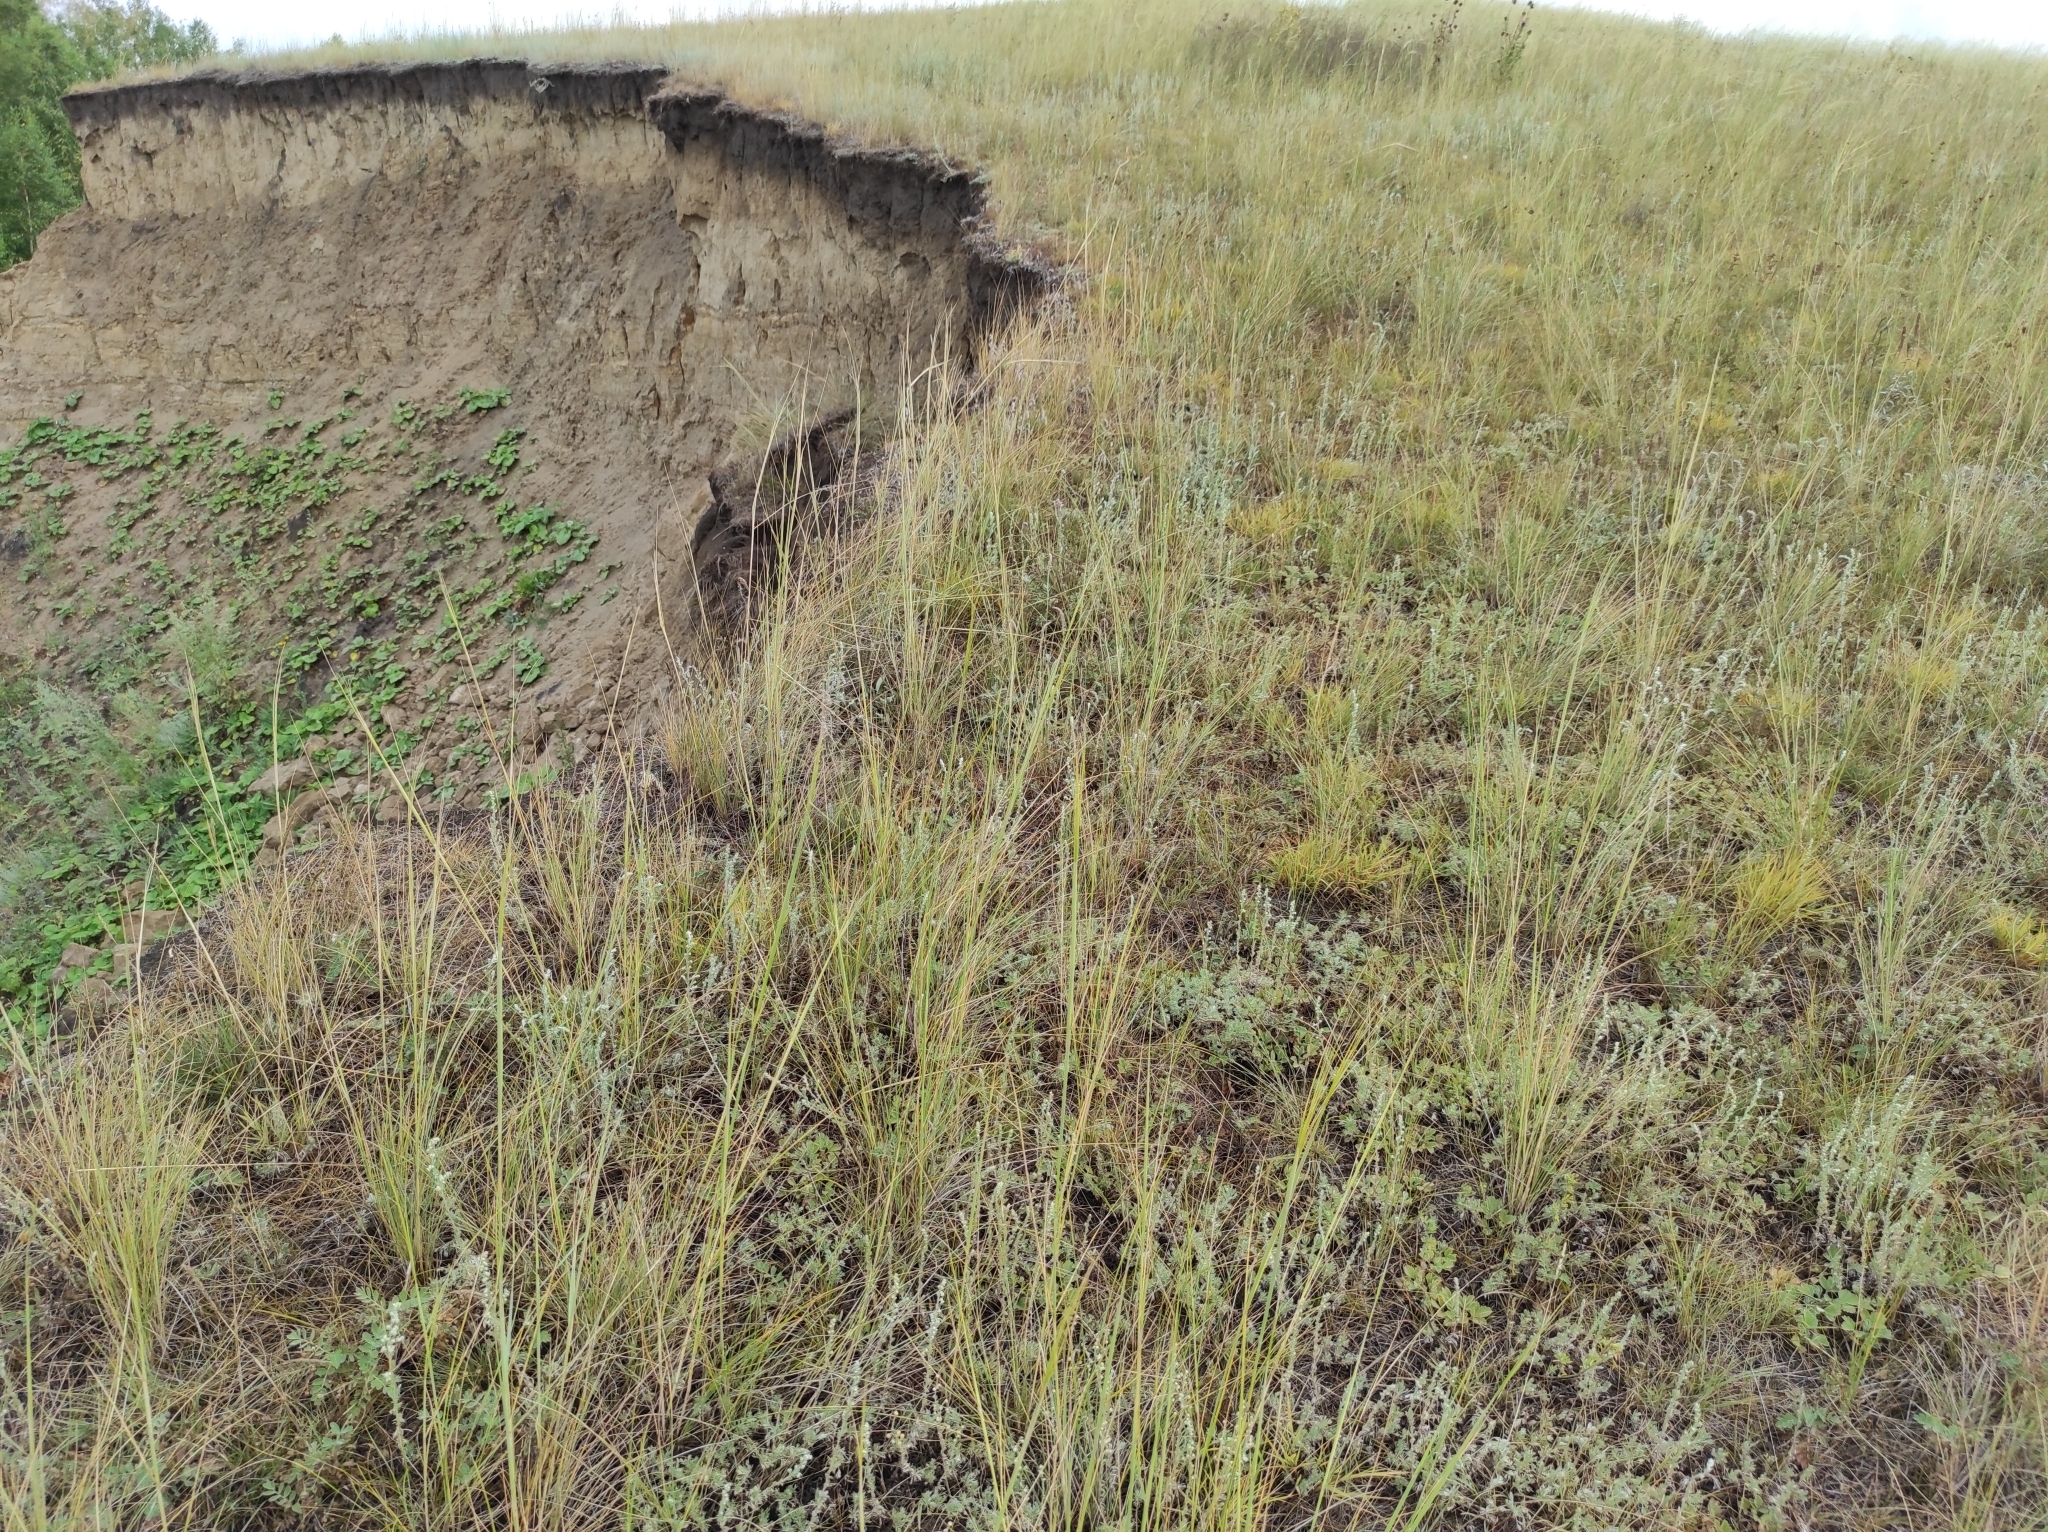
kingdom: Animalia
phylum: Chordata
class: Aves
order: Coraciiformes
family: Meropidae
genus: Merops
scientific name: Merops apiaster
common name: European bee-eater
